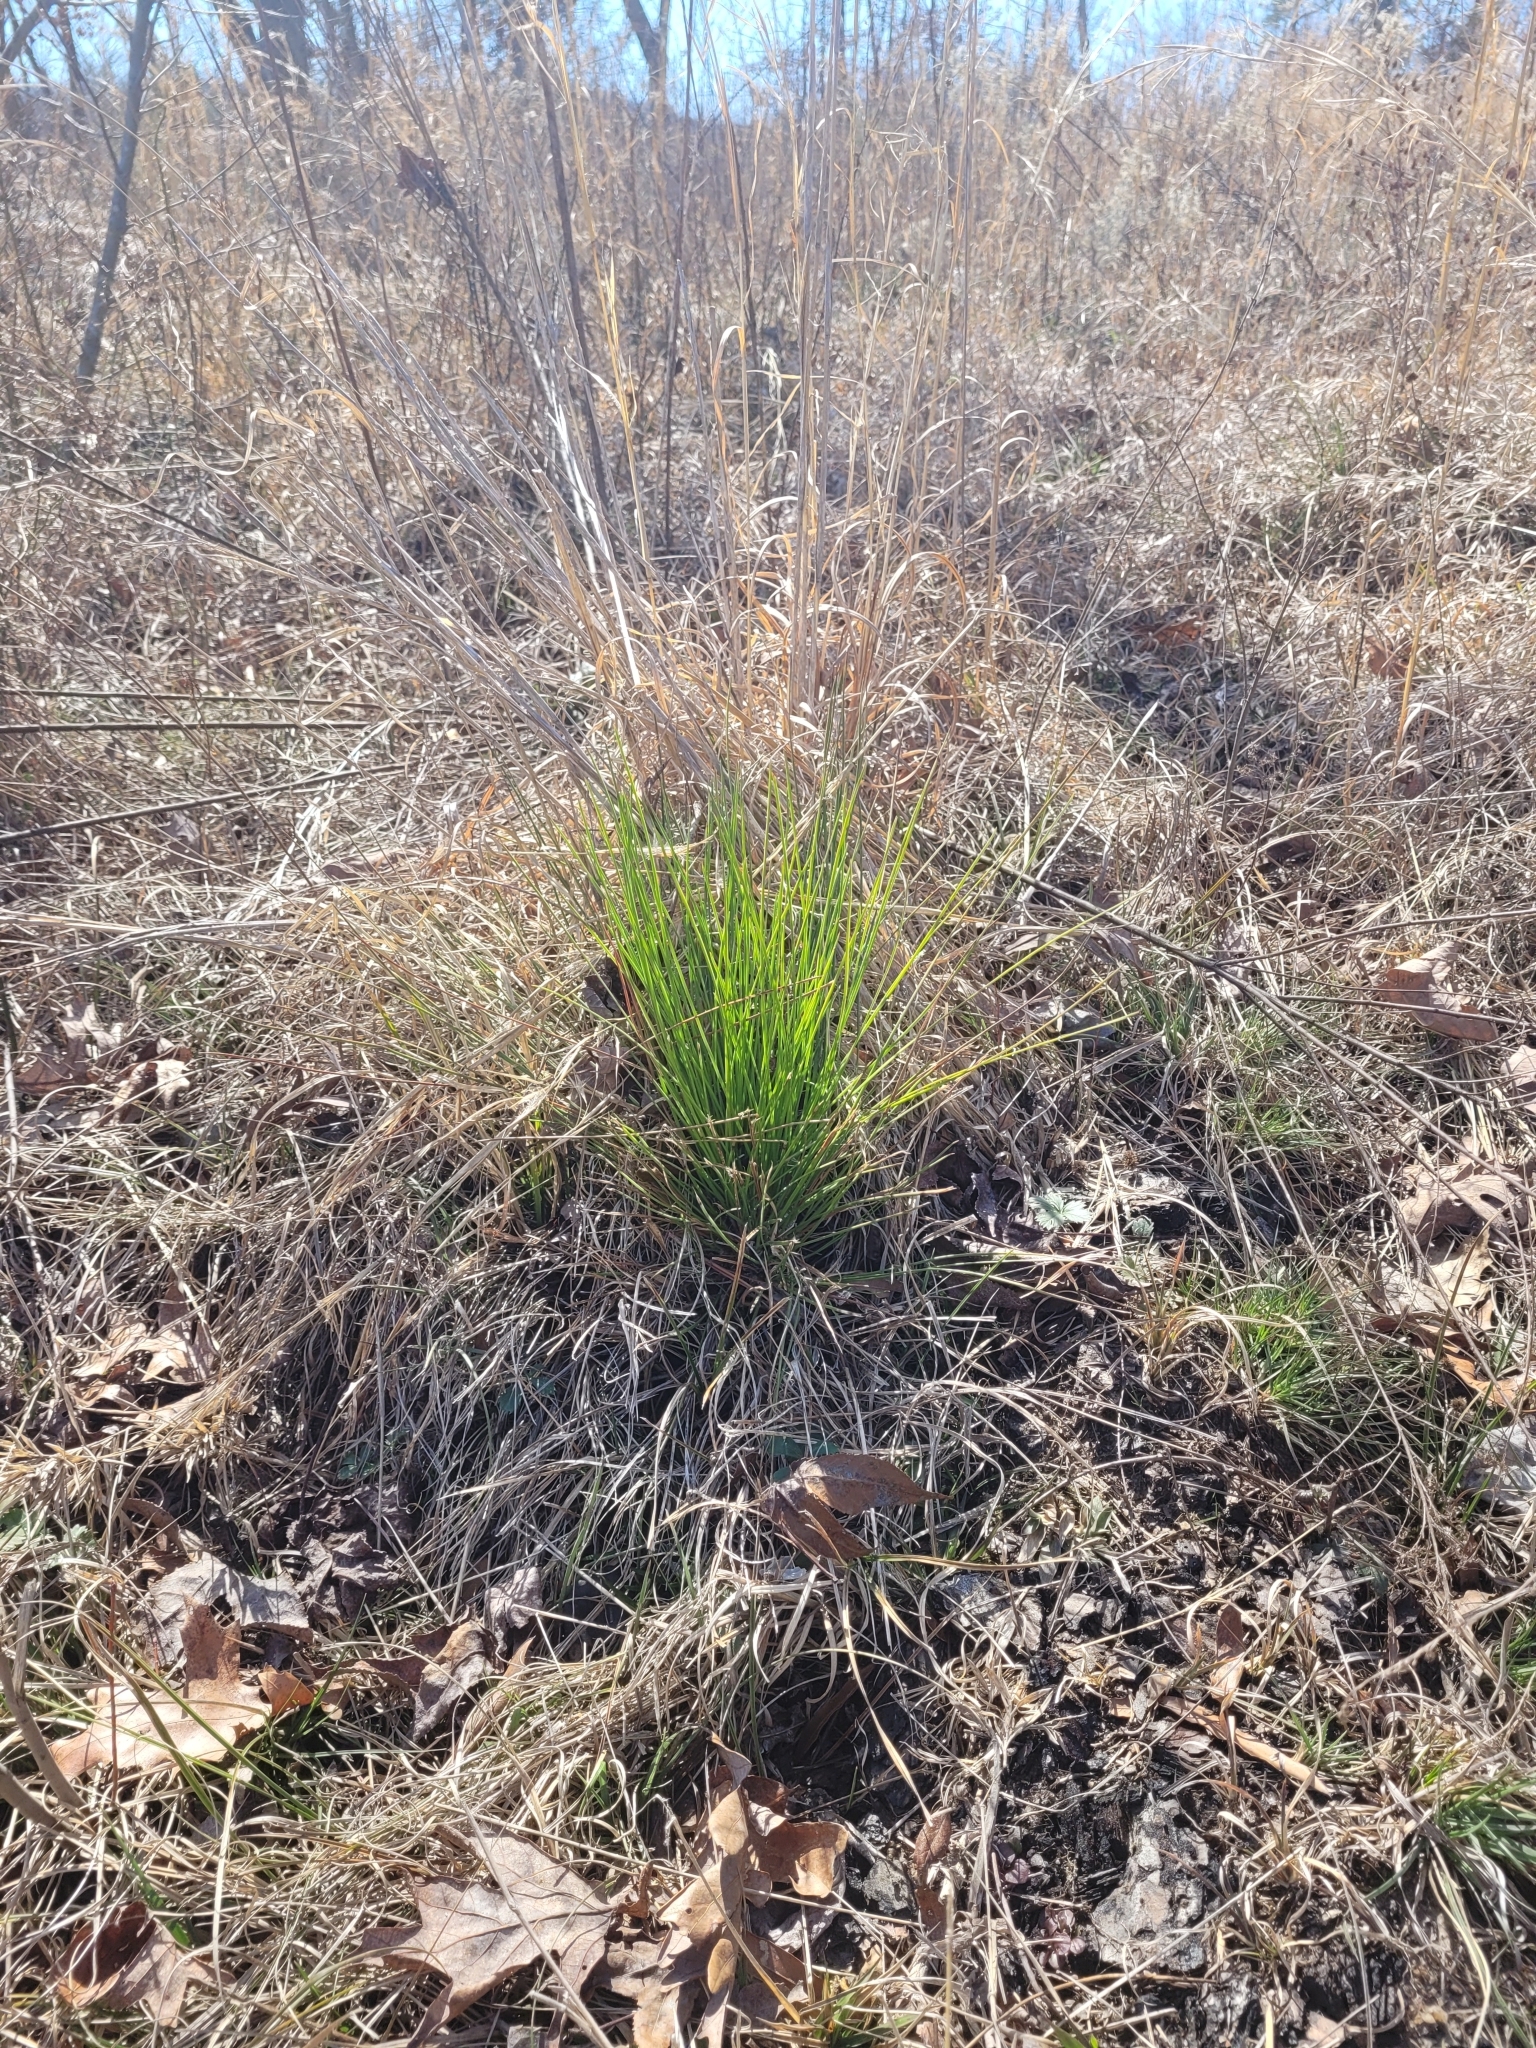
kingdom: Plantae
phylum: Tracheophyta
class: Pinopsida
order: Pinales
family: Pinaceae
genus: Pinus
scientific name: Pinus palustris
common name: Longleaf pine
